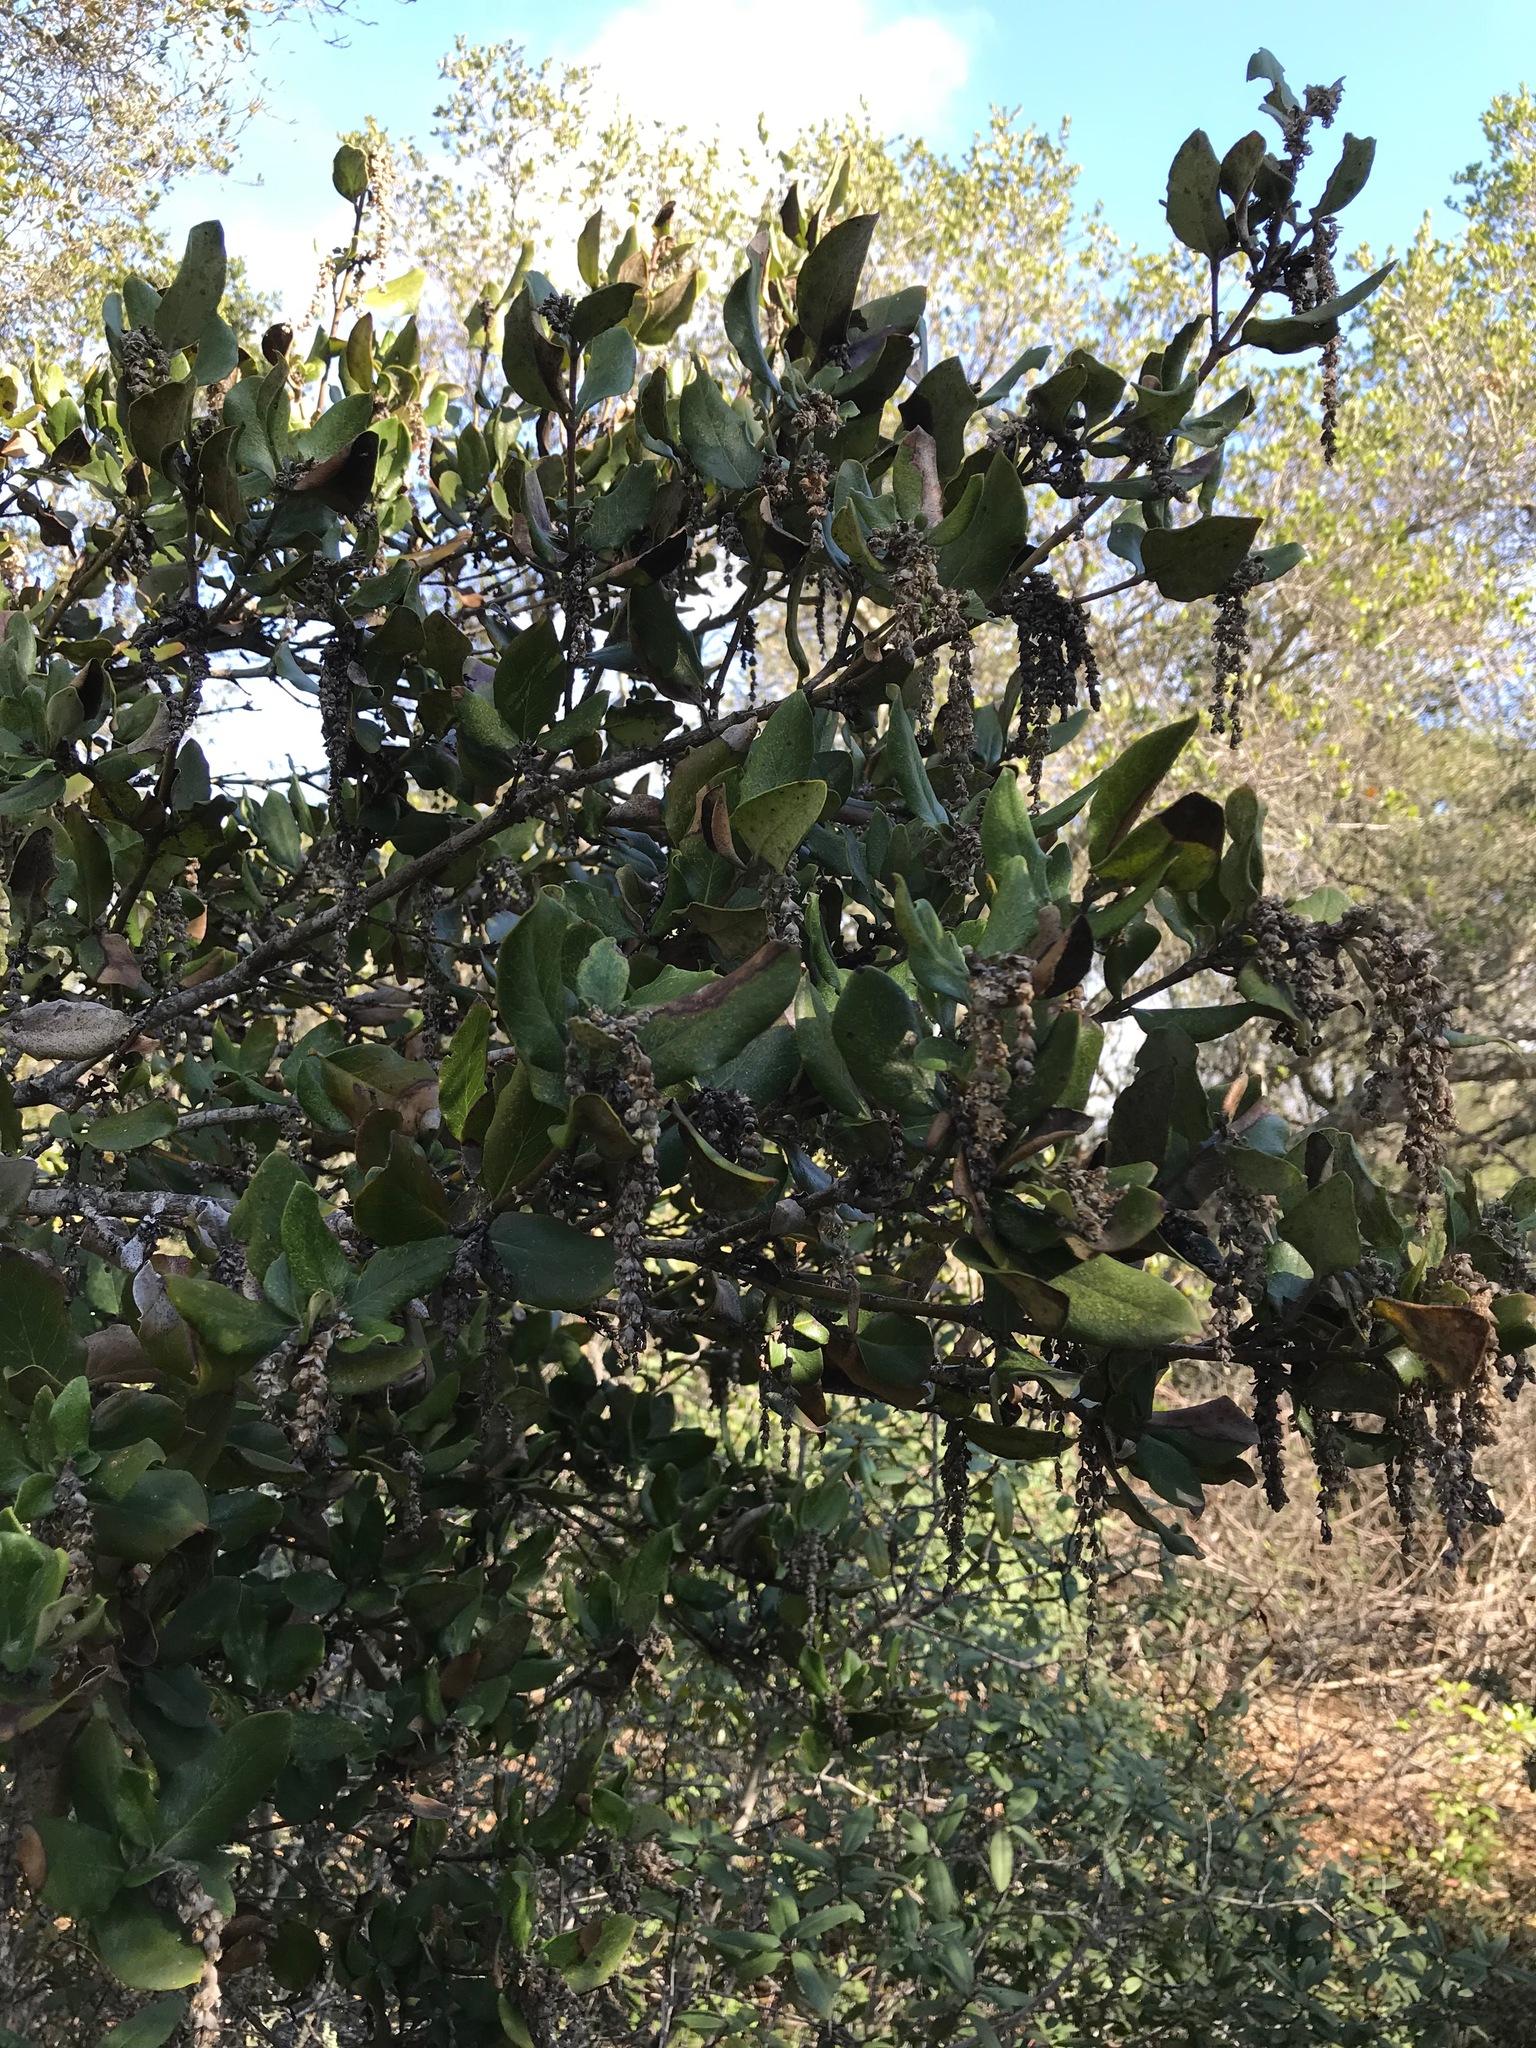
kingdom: Plantae
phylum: Tracheophyta
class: Magnoliopsida
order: Garryales
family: Garryaceae
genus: Garrya
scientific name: Garrya elliptica
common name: Silk-tassel
